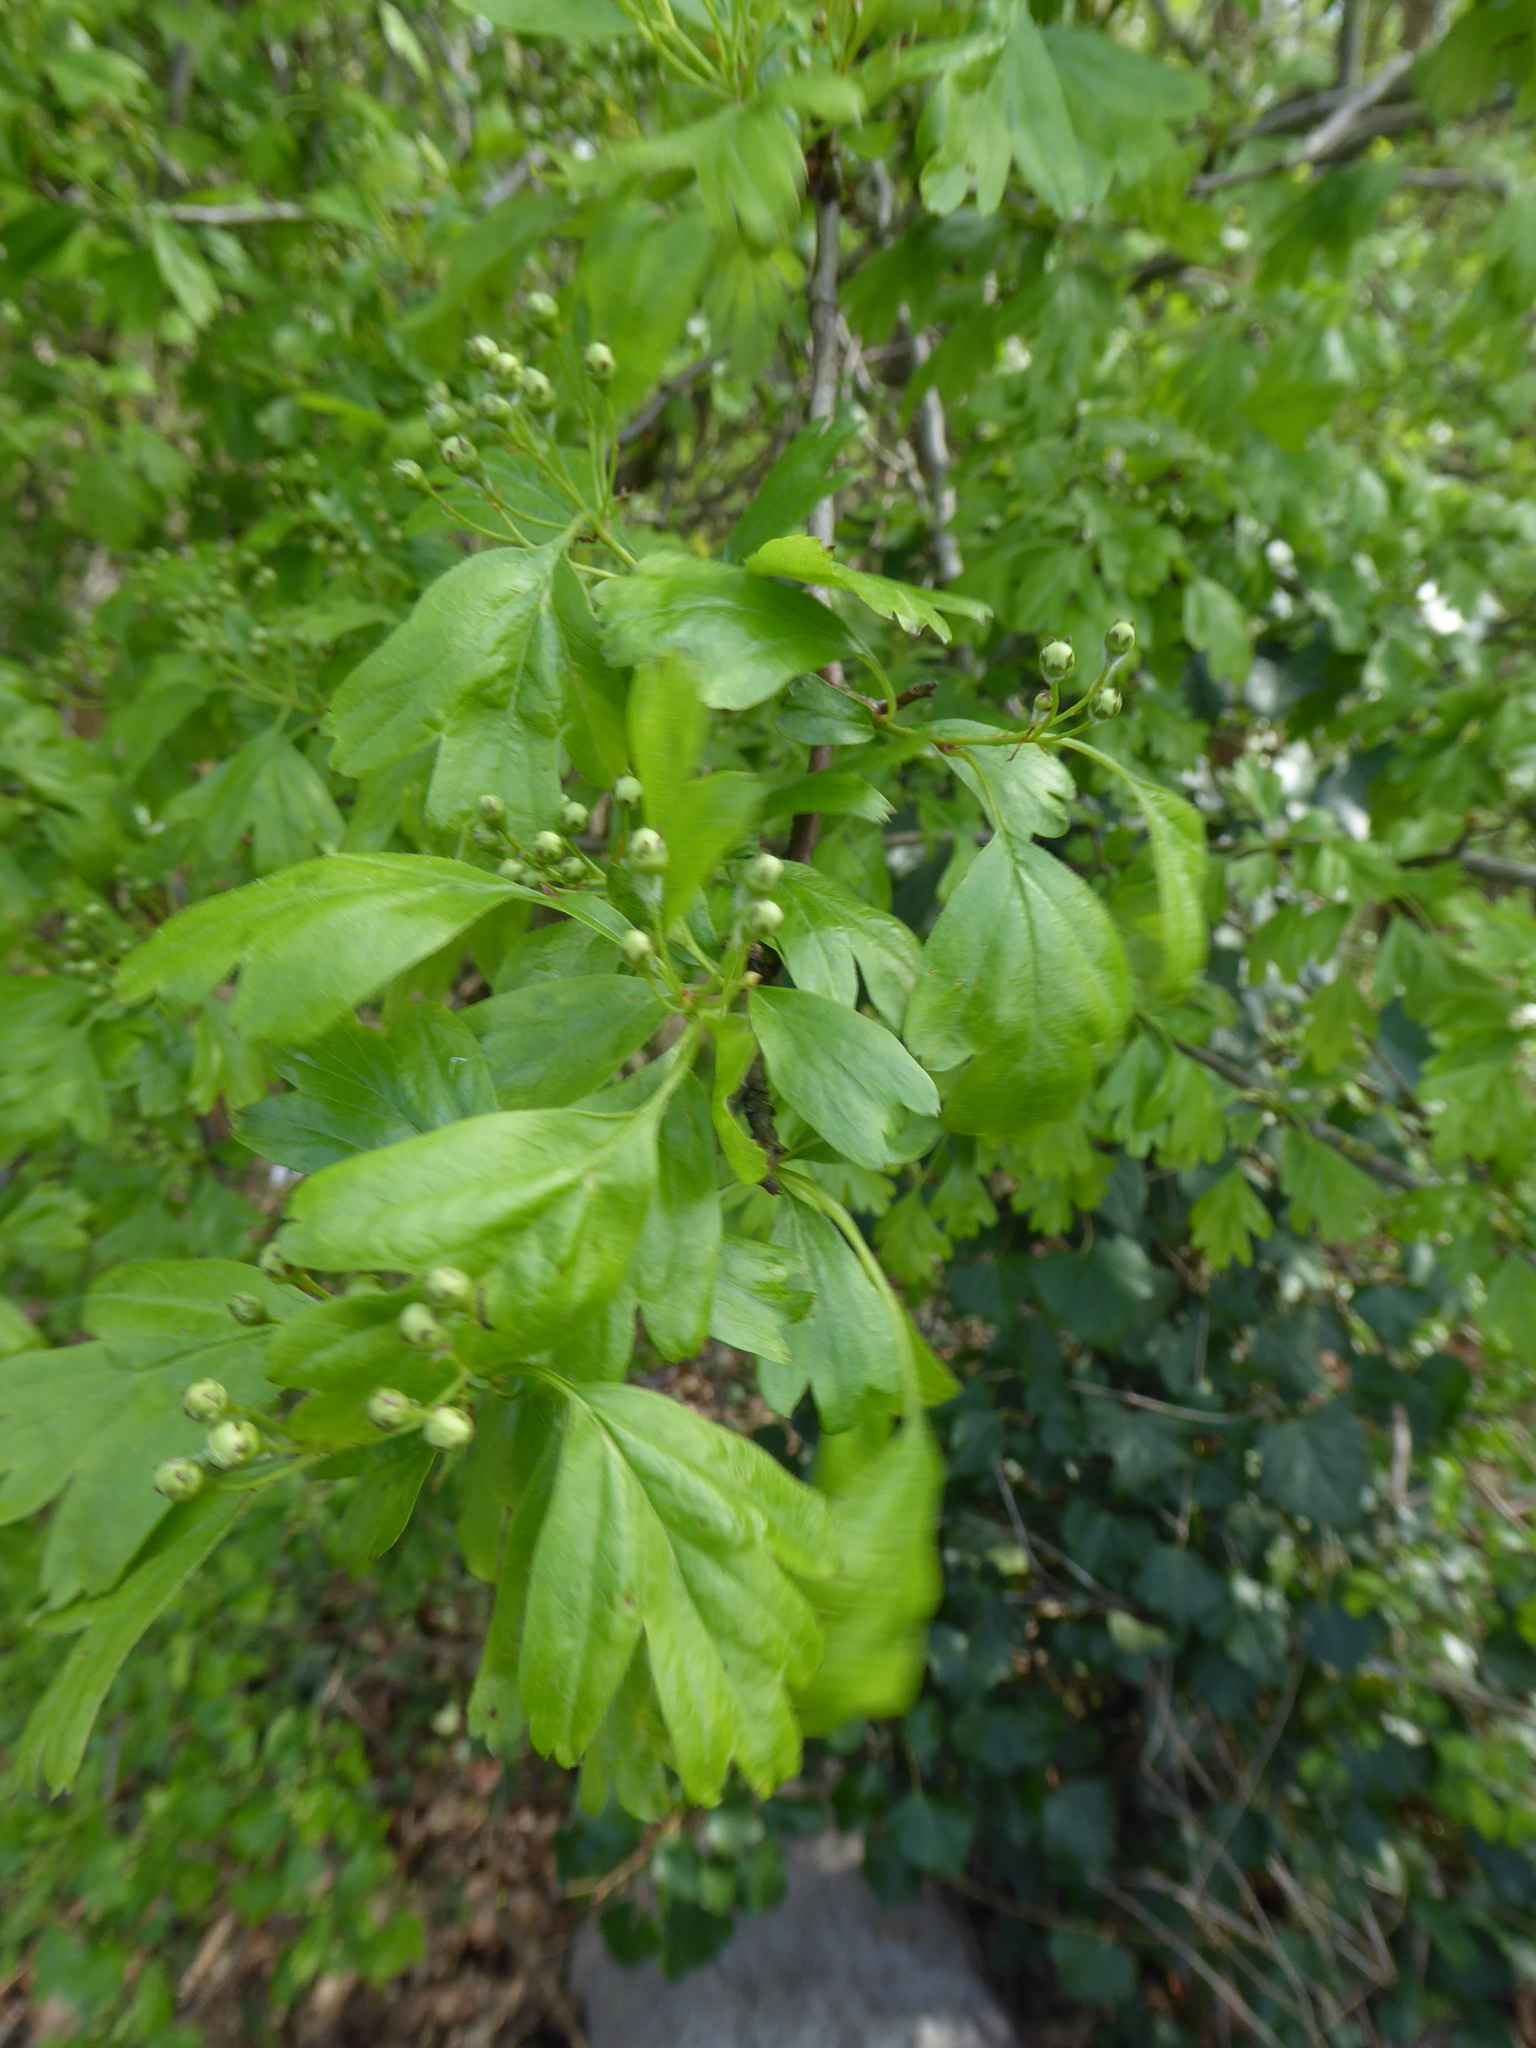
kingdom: Plantae
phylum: Tracheophyta
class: Magnoliopsida
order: Rosales
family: Rosaceae
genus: Crataegus
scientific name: Crataegus laevigata
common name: Midland hawthorn
